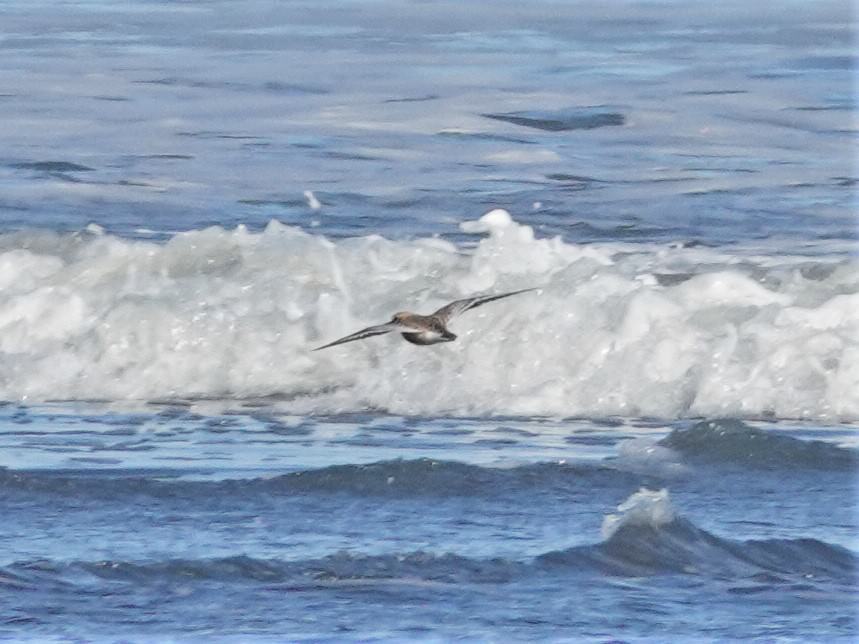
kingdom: Animalia
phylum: Chordata
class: Aves
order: Charadriiformes
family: Charadriidae
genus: Anarhynchus
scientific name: Anarhynchus
